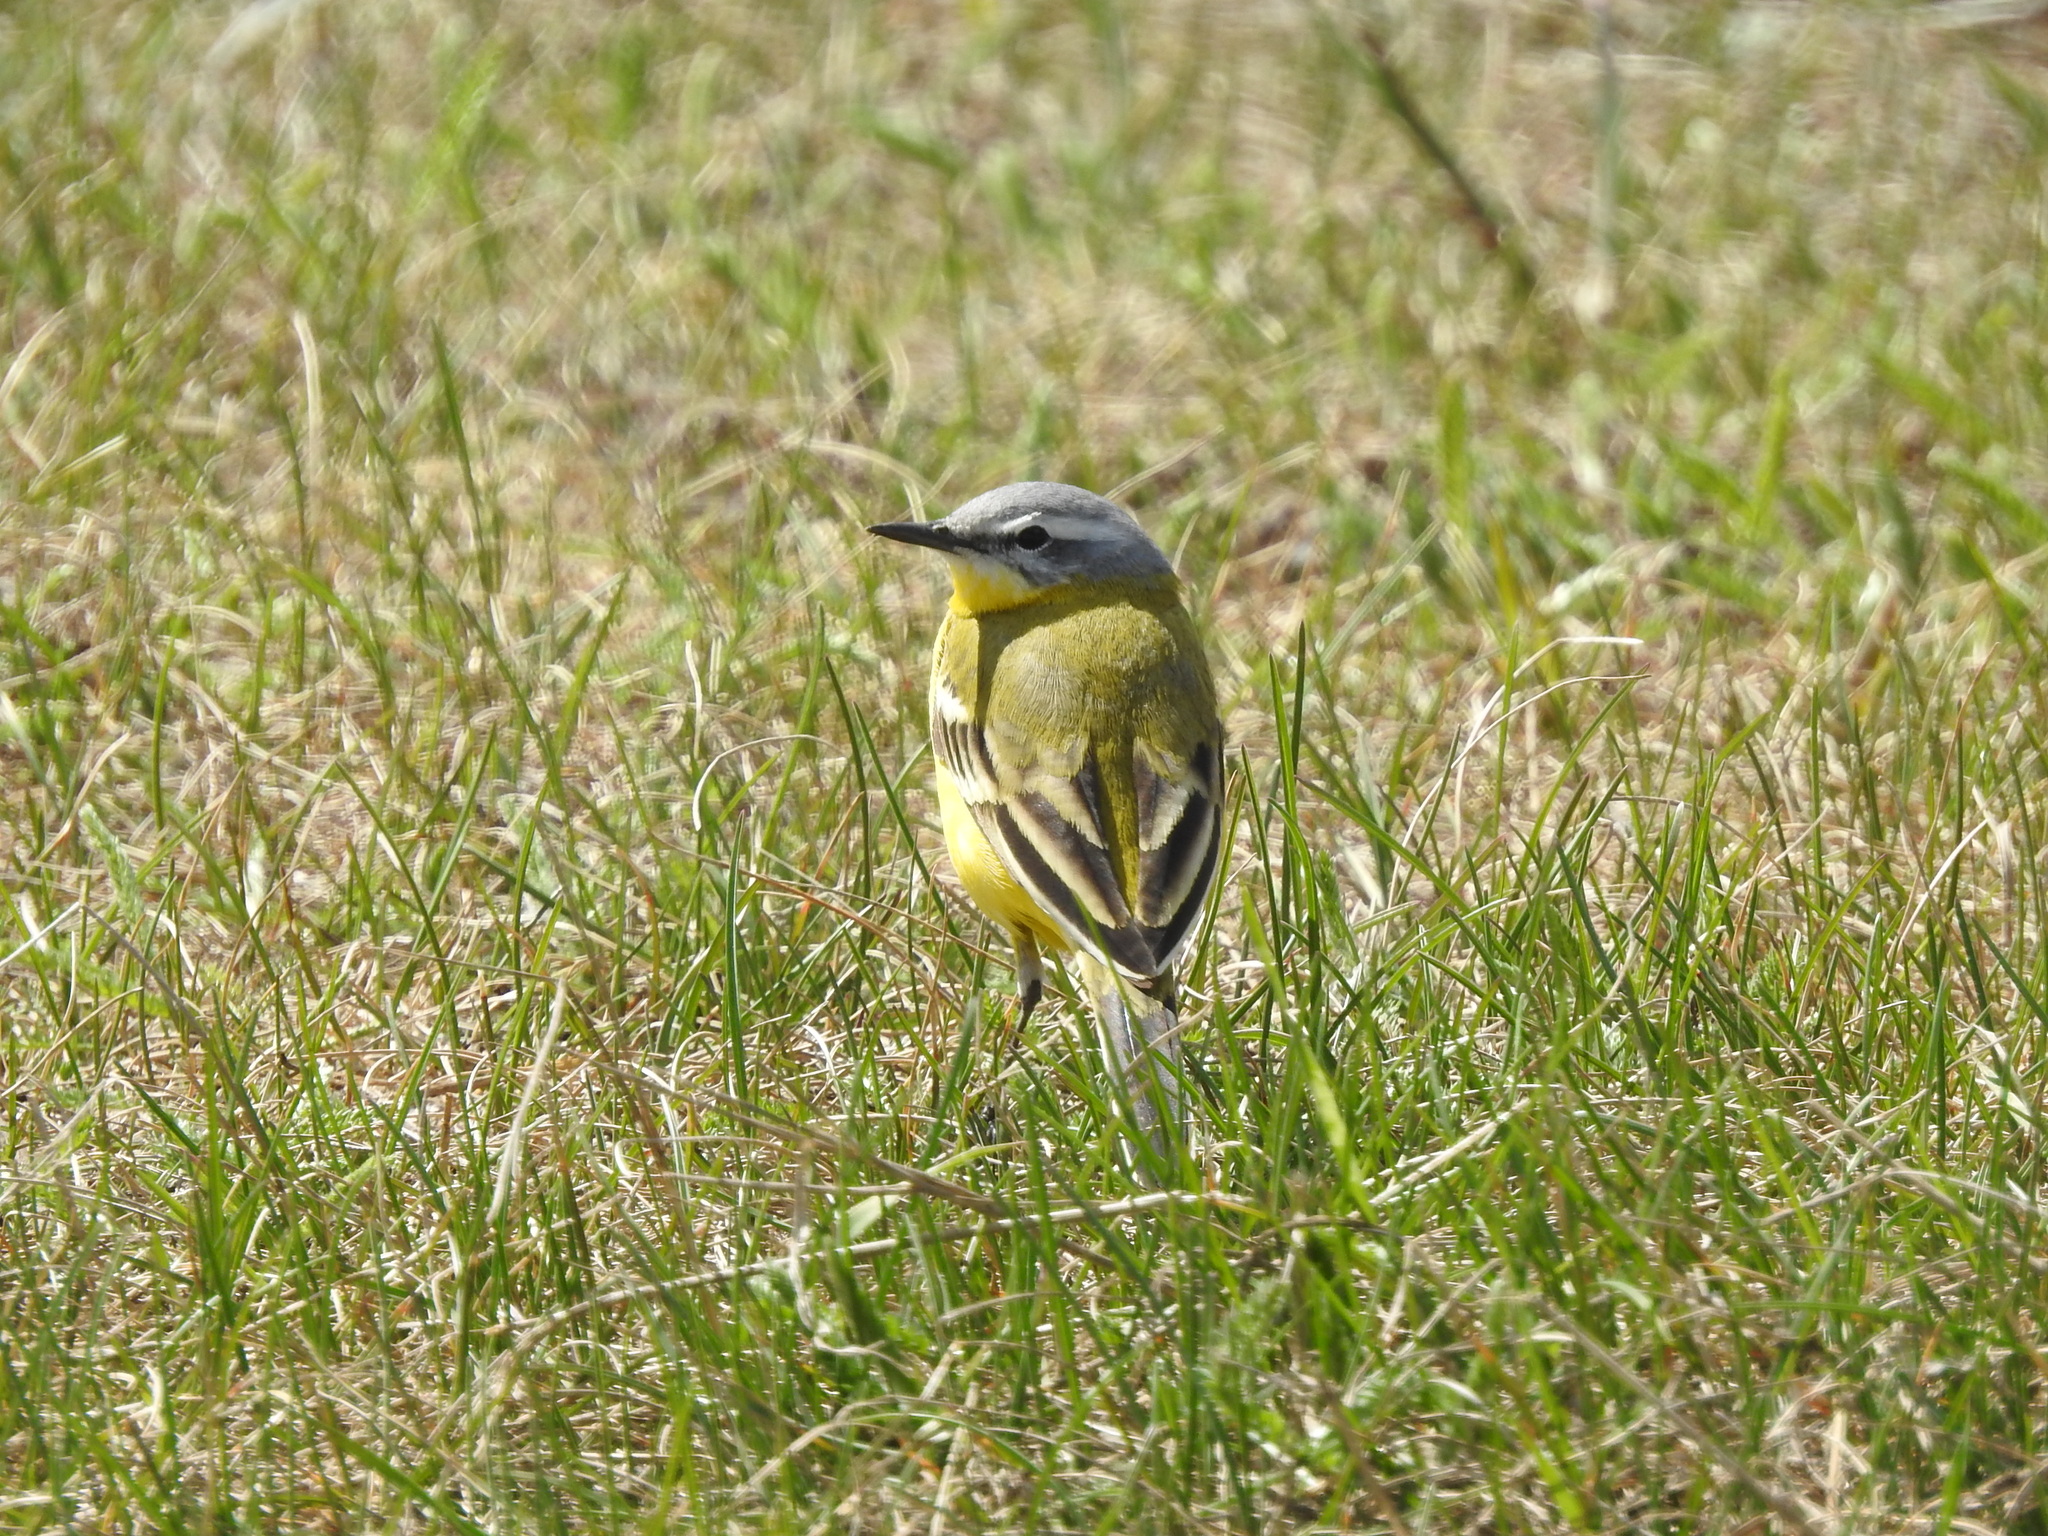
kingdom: Animalia
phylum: Chordata
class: Aves
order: Passeriformes
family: Motacillidae
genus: Motacilla
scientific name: Motacilla flava
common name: Western yellow wagtail
